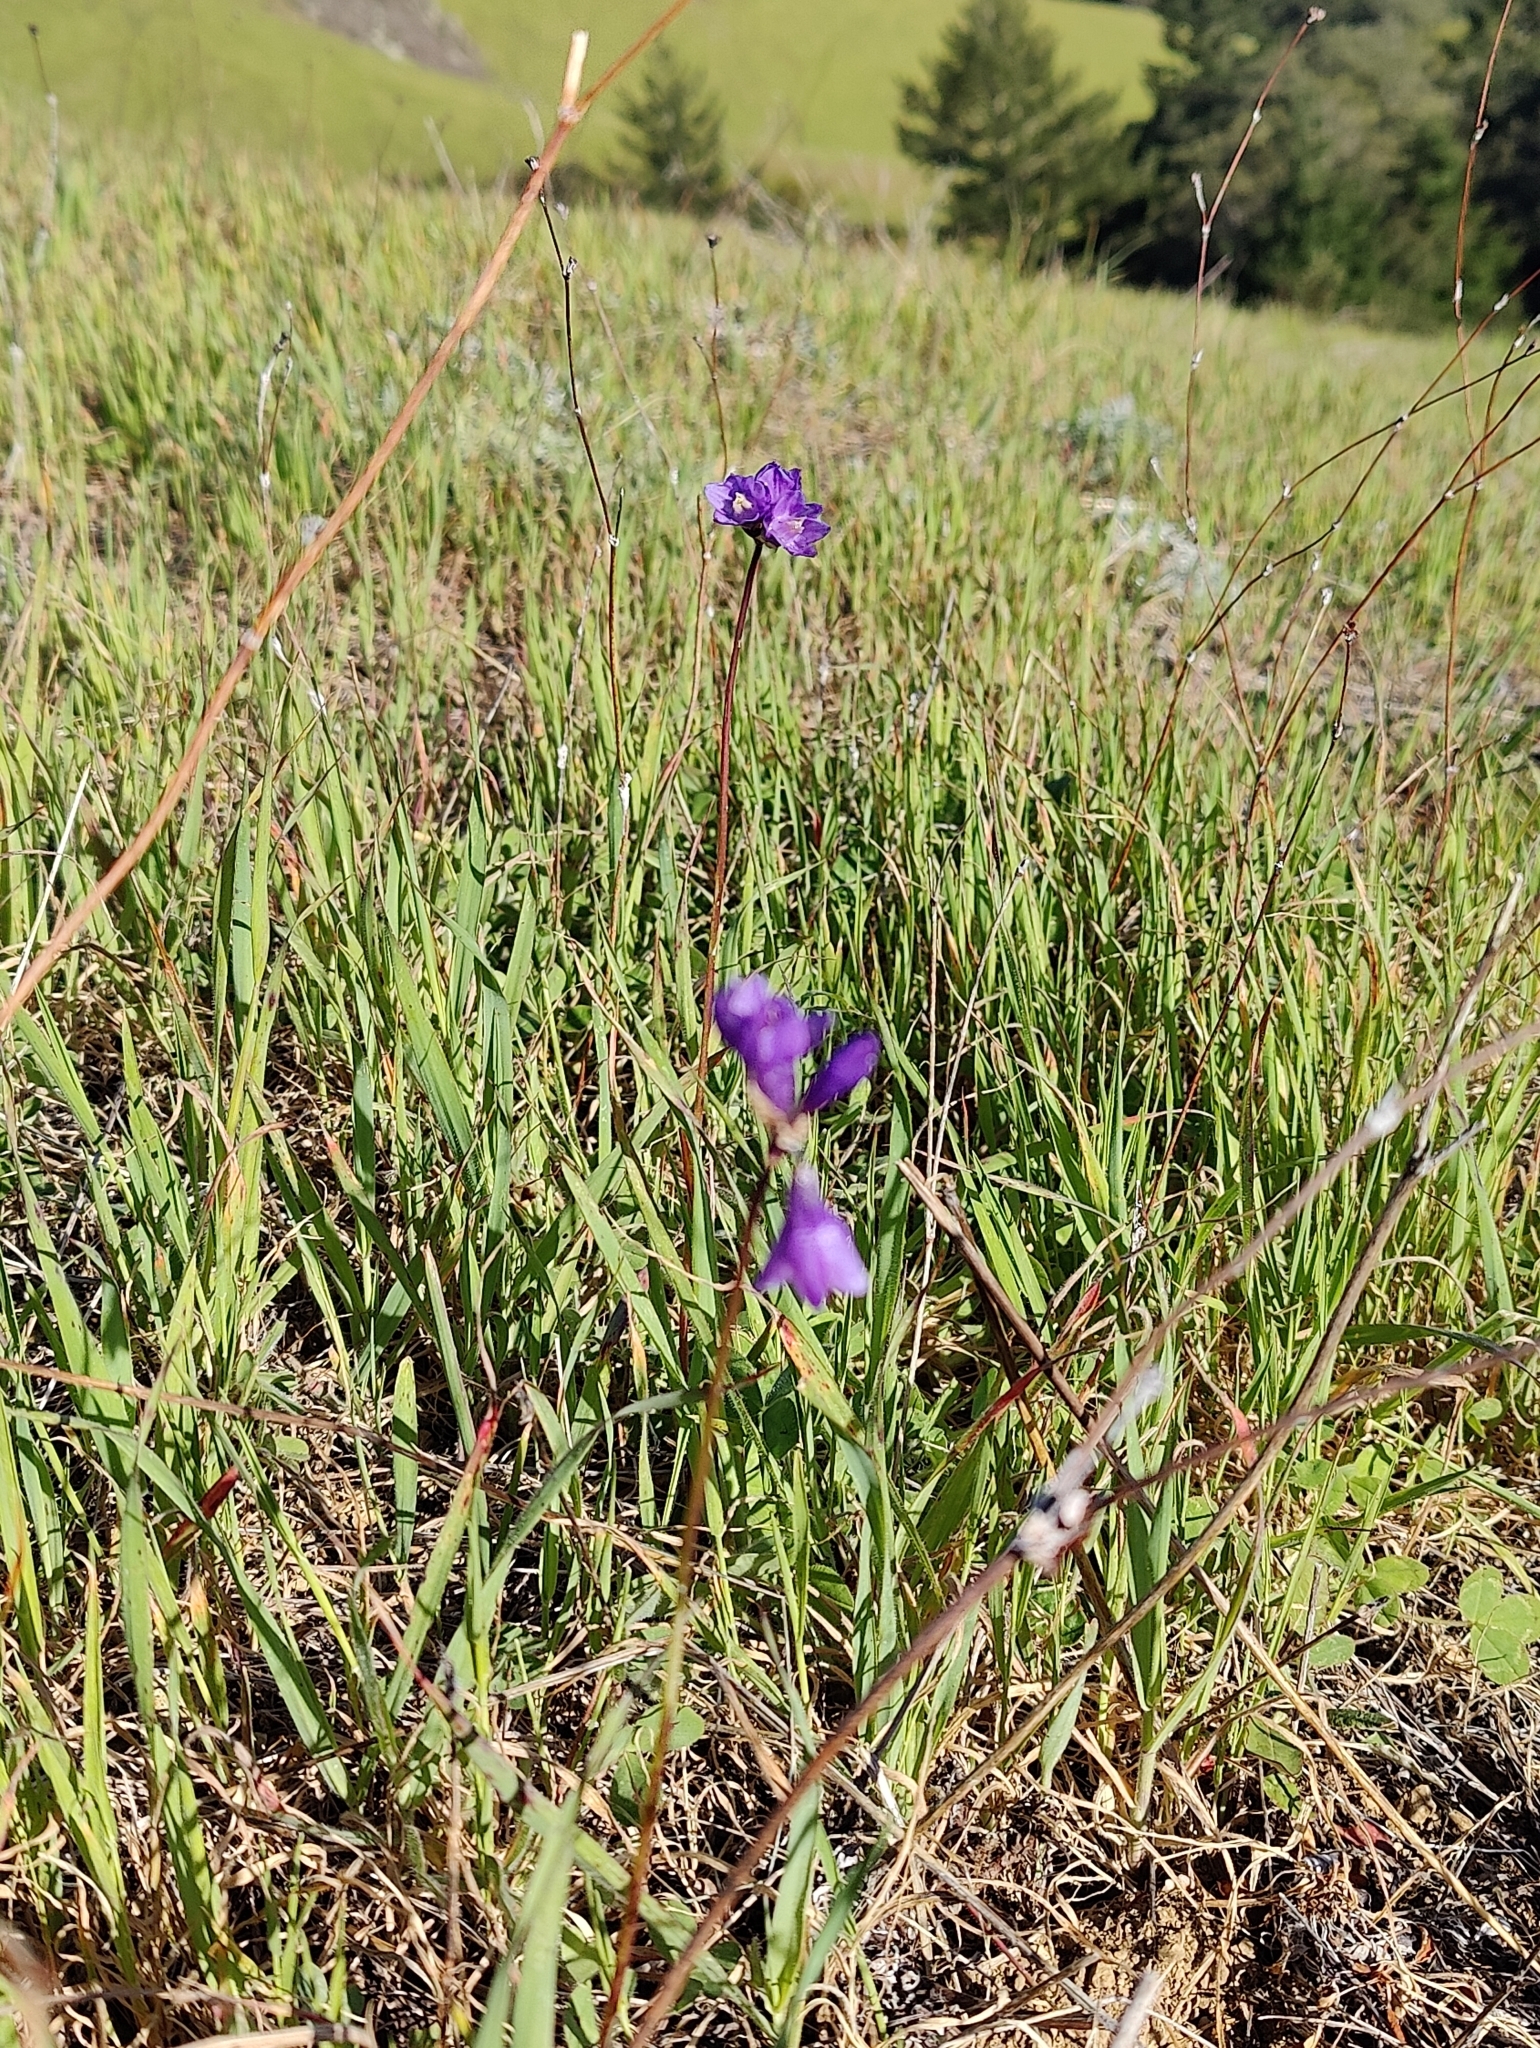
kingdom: Plantae
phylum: Tracheophyta
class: Liliopsida
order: Asparagales
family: Asparagaceae
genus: Dipterostemon
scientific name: Dipterostemon capitatus
